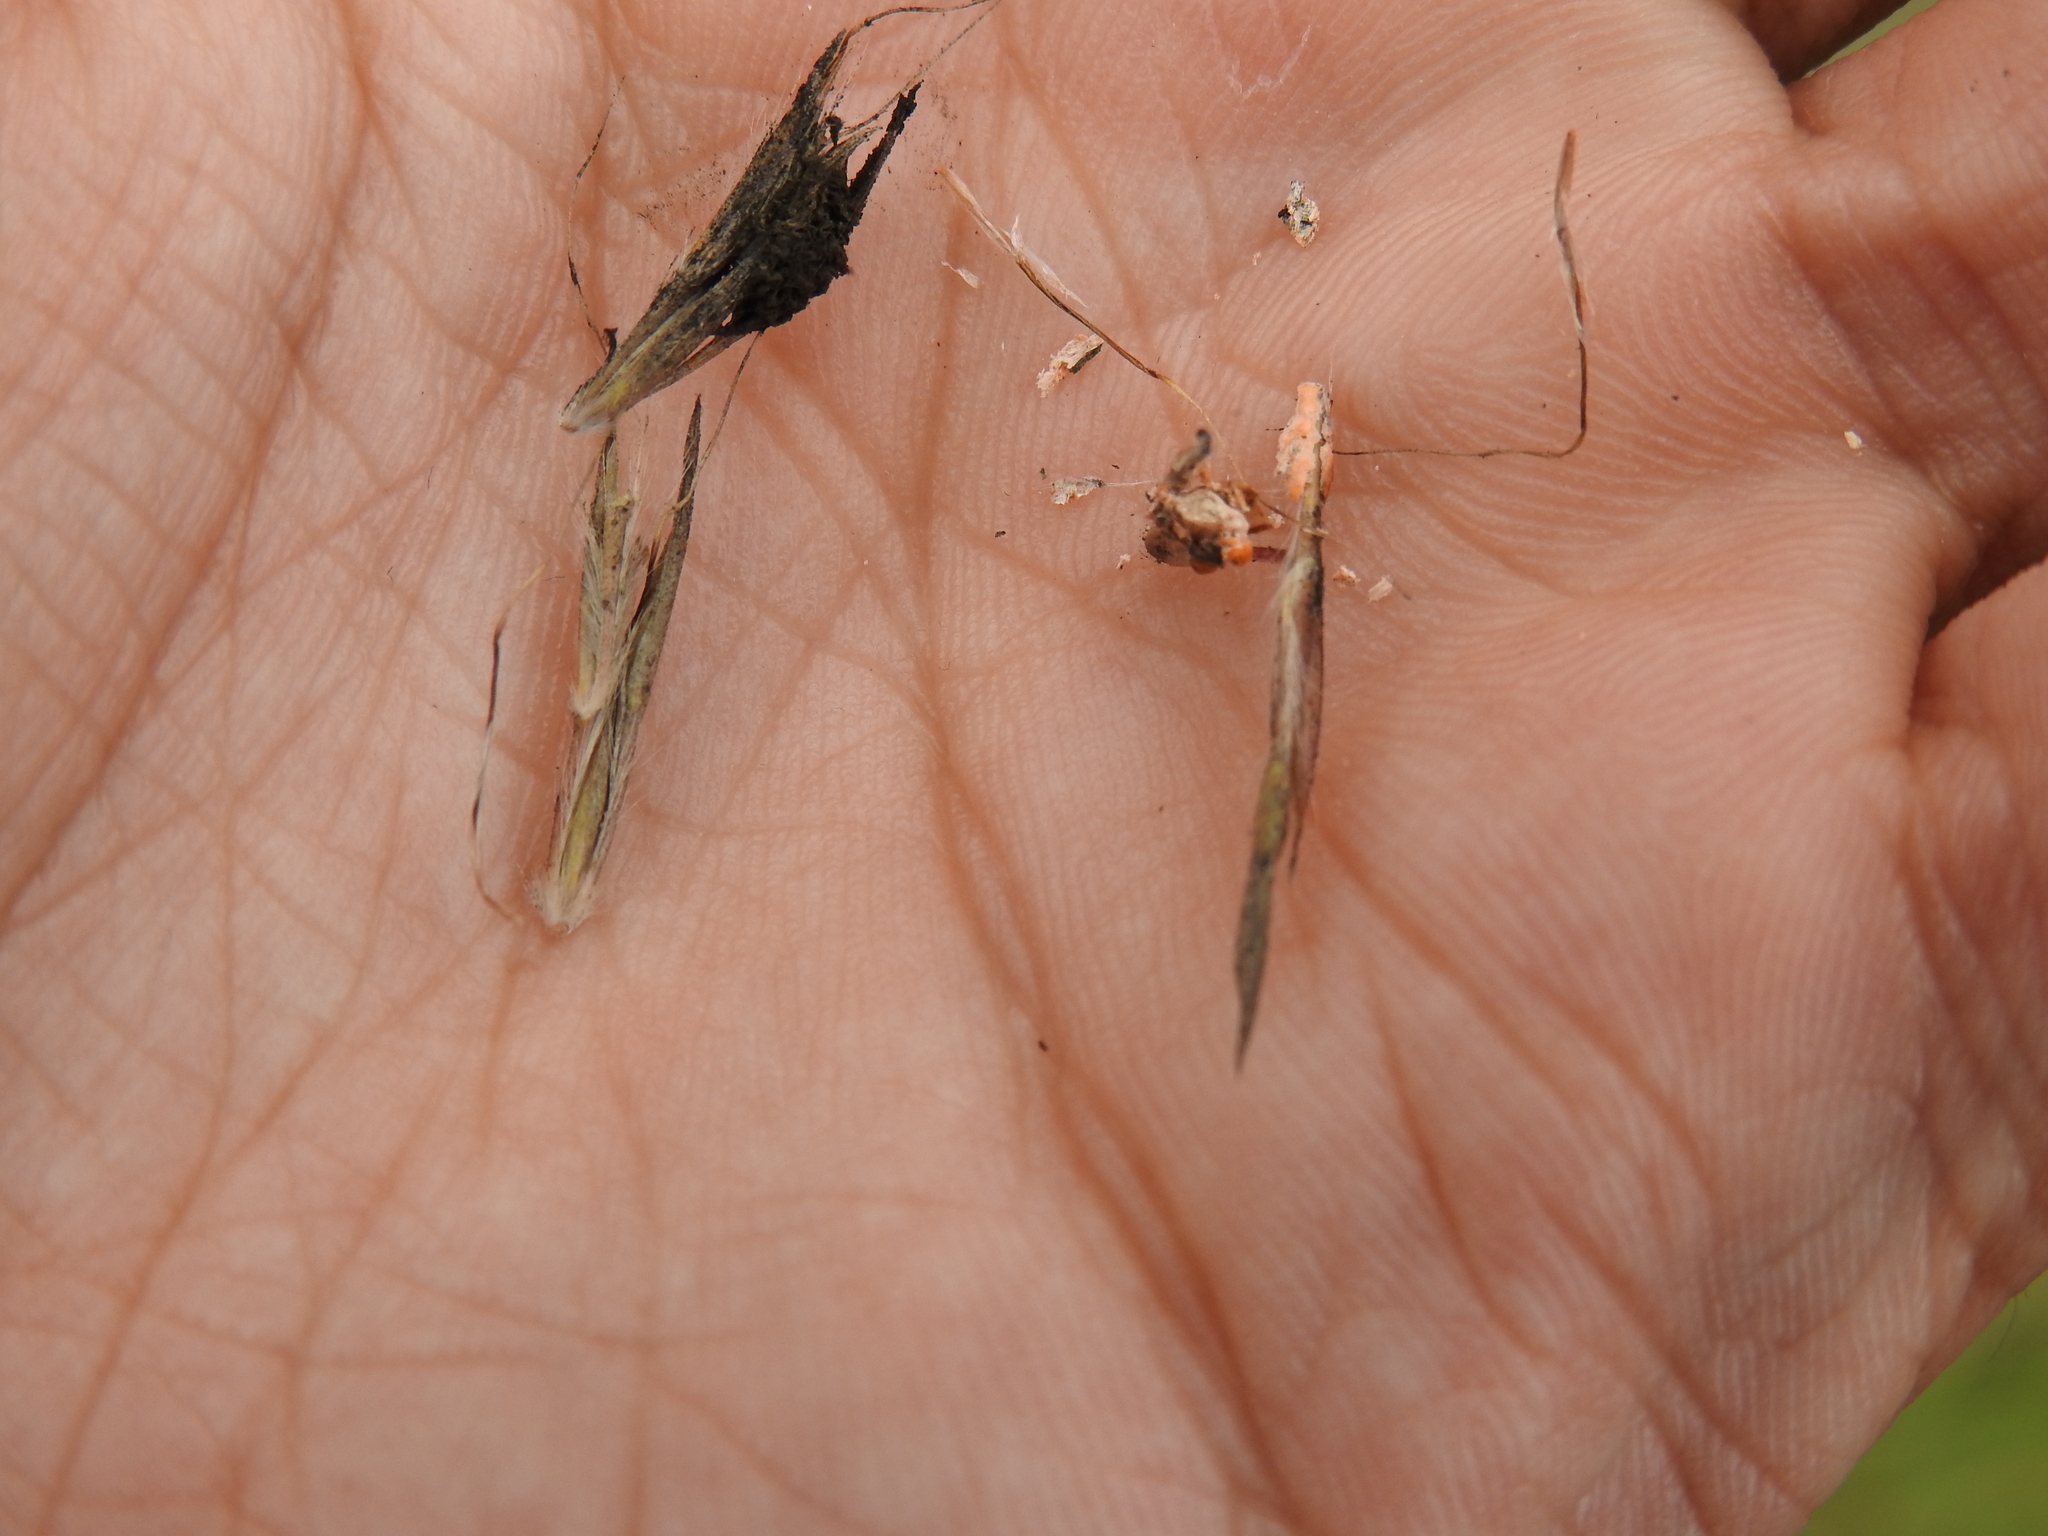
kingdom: Fungi
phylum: Ascomycota
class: Dothideomycetes
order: Pleosporales
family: Didymellaceae
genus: Epicoccum
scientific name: Epicoccum andropogonis
